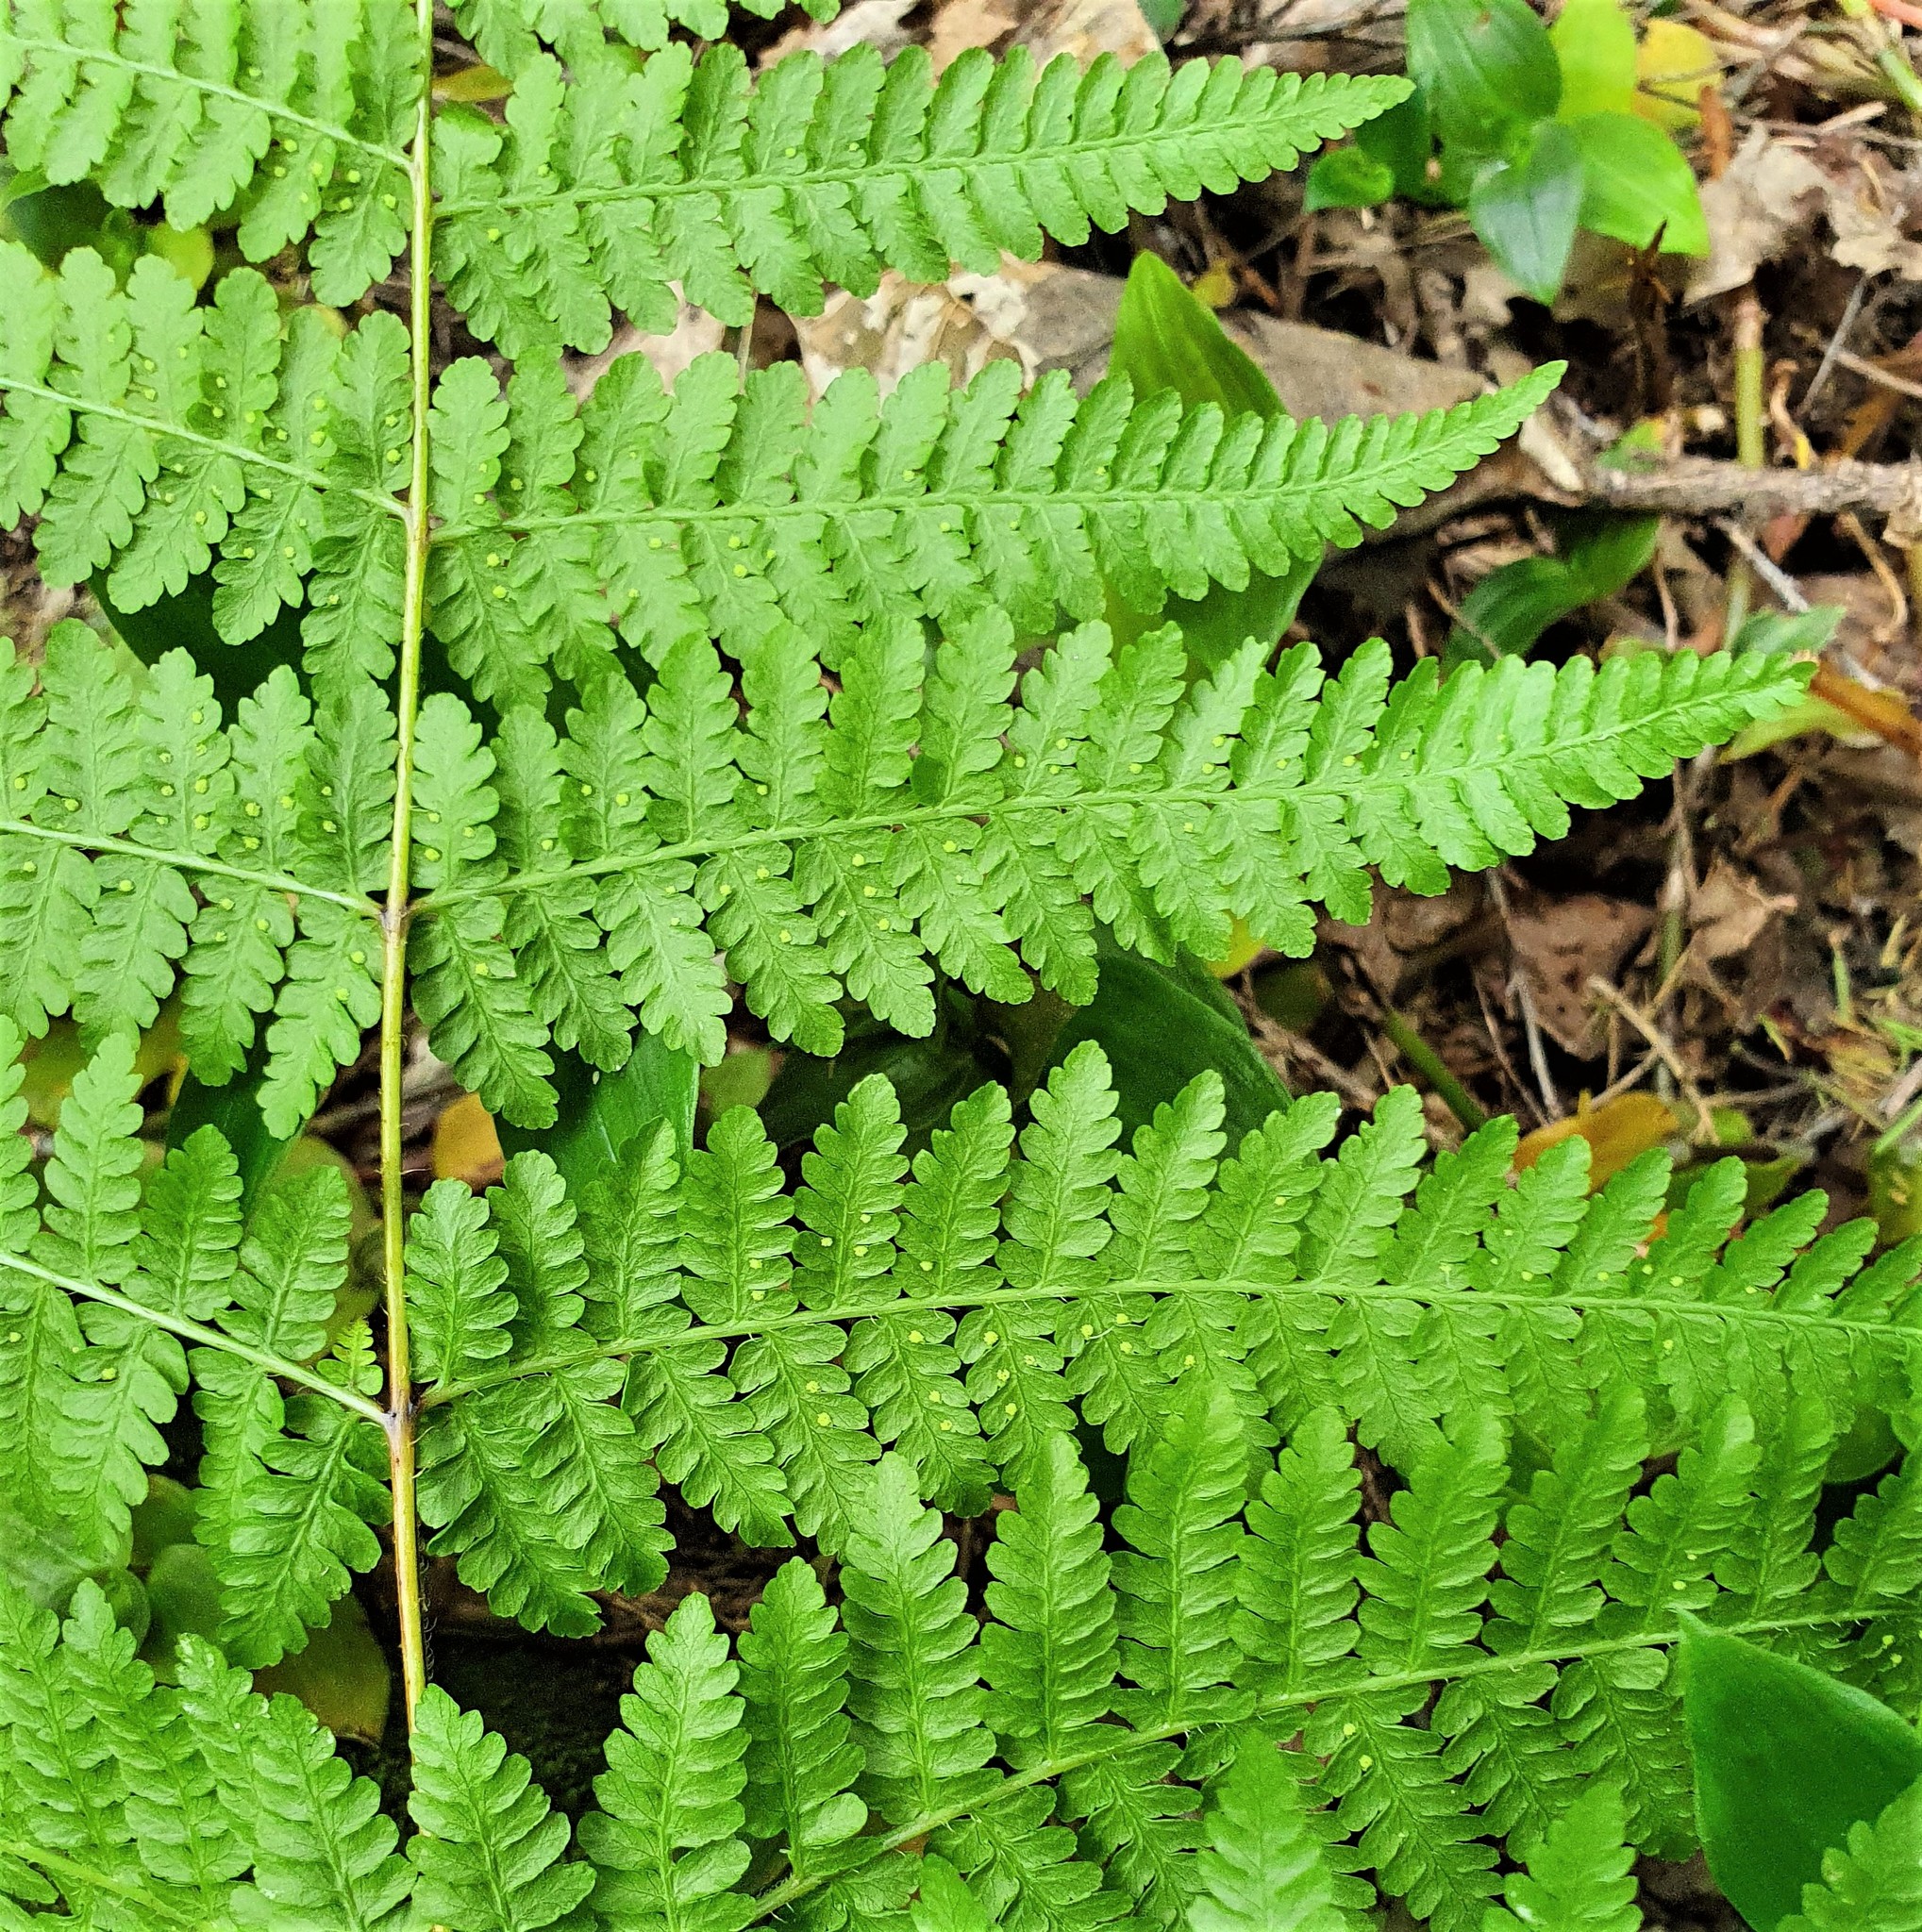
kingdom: Plantae
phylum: Tracheophyta
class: Polypodiopsida
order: Polypodiales
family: Dennstaedtiaceae
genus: Hypolepis
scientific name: Hypolepis ambigua
